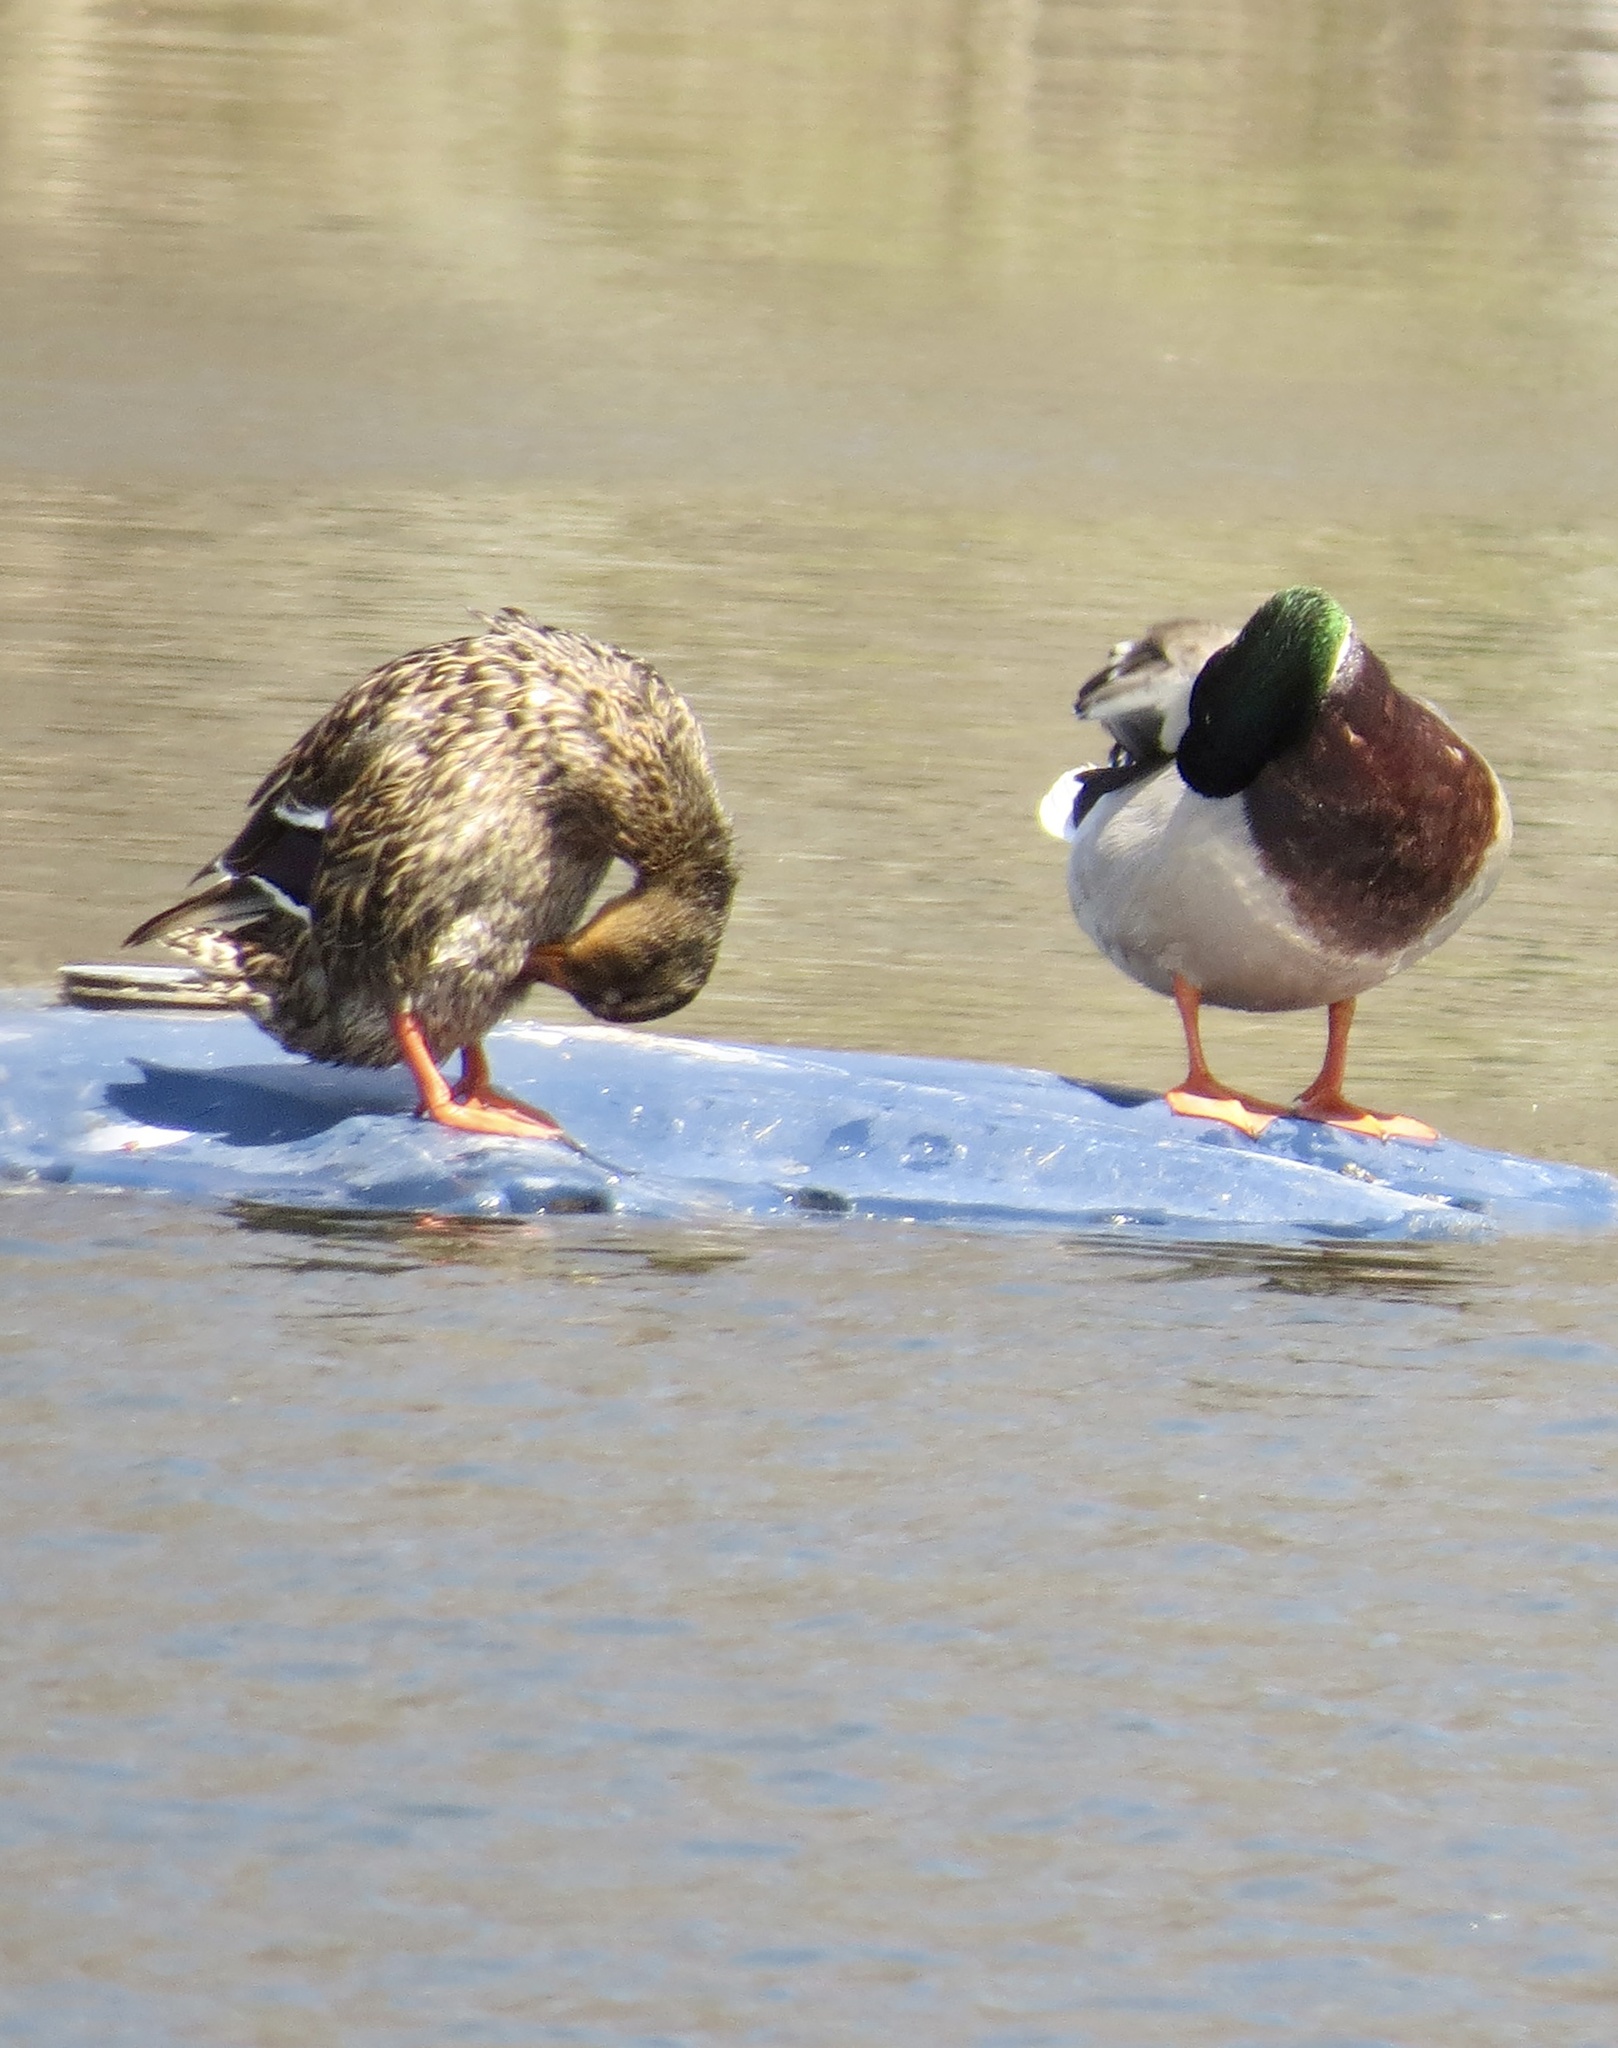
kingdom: Animalia
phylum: Chordata
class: Aves
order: Anseriformes
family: Anatidae
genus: Anas
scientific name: Anas platyrhynchos
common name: Mallard
